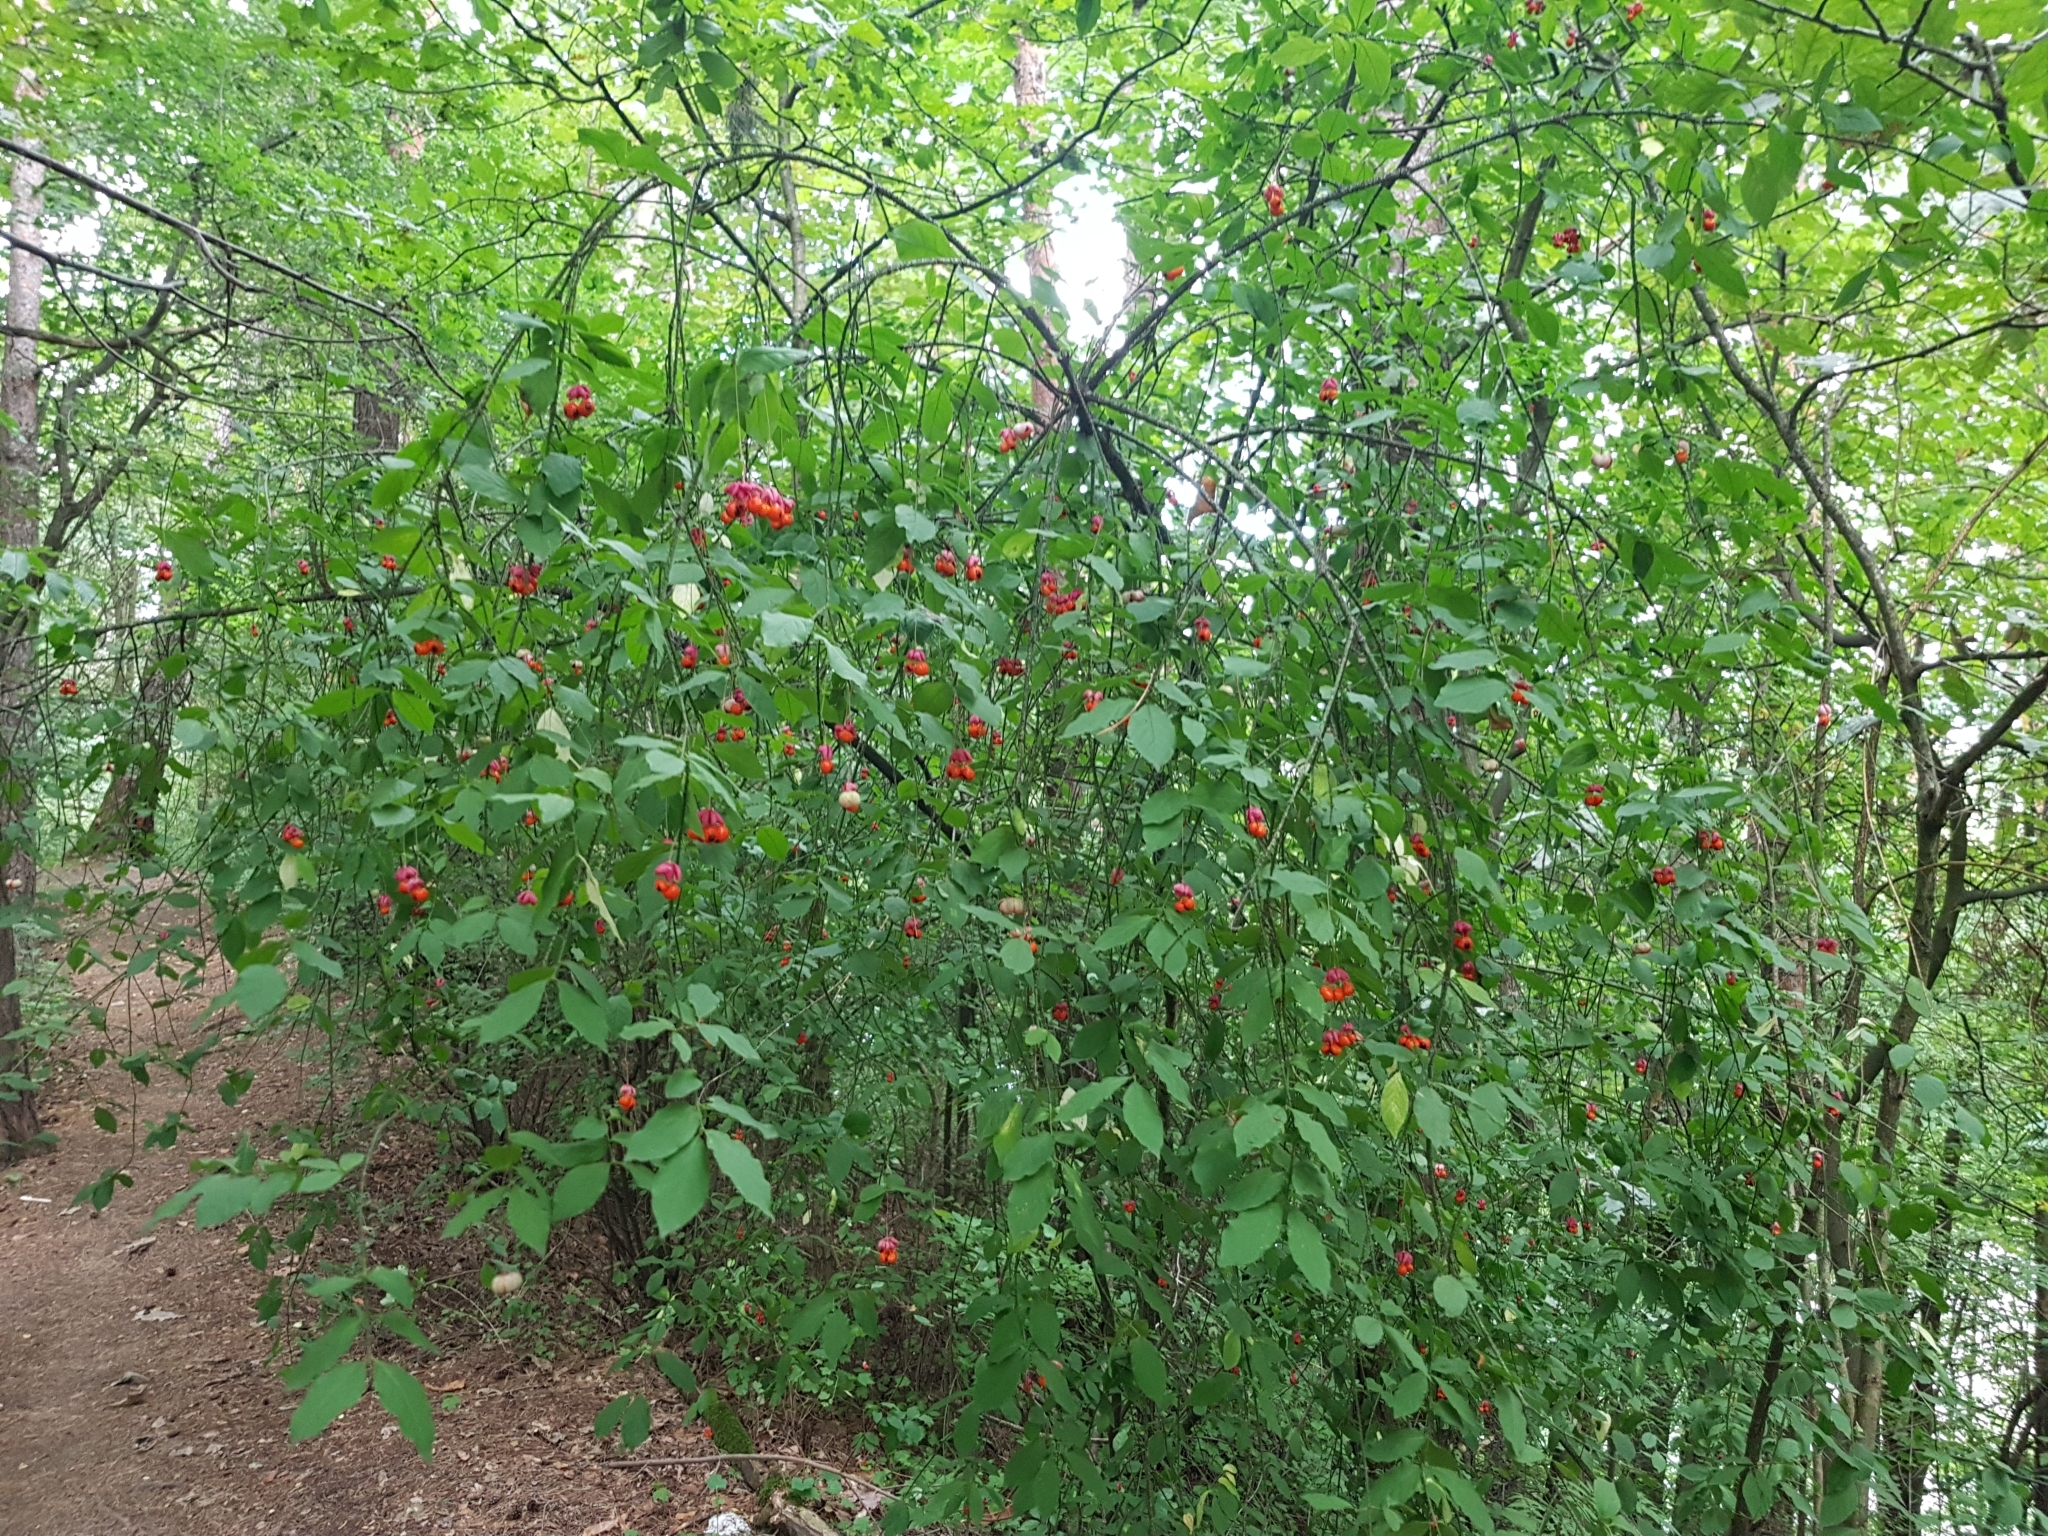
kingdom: Plantae
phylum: Tracheophyta
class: Magnoliopsida
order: Celastrales
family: Celastraceae
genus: Euonymus
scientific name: Euonymus verrucosus
